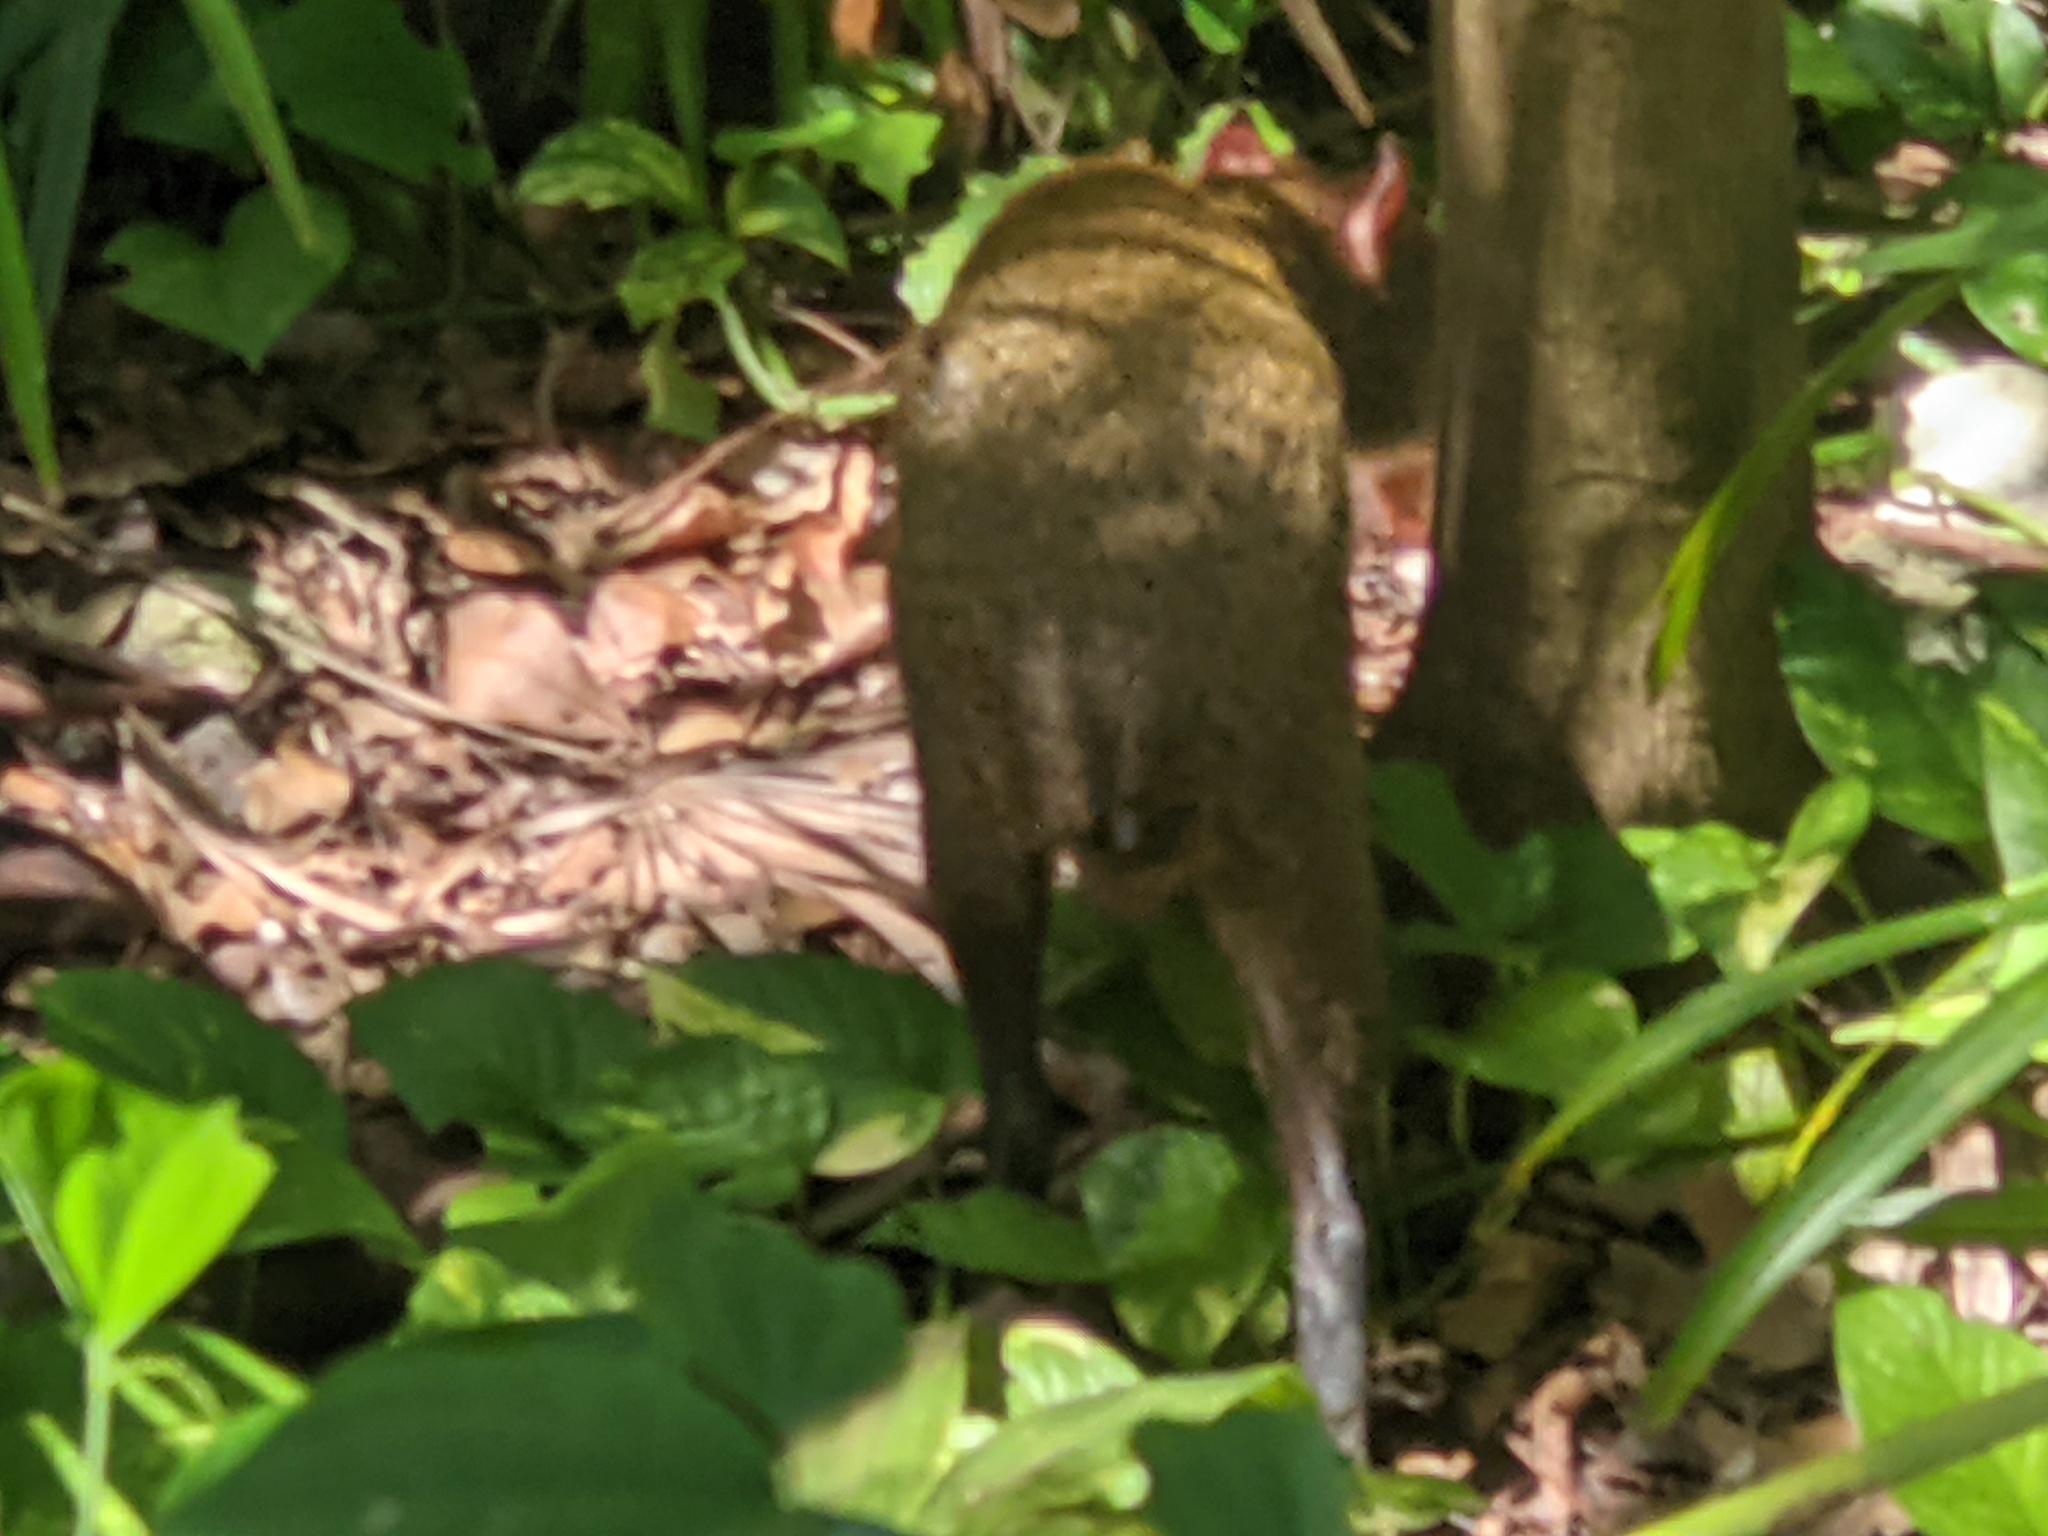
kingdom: Animalia
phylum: Chordata
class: Mammalia
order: Rodentia
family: Dasyproctidae
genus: Dasyprocta
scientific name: Dasyprocta punctata
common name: Central american agouti
